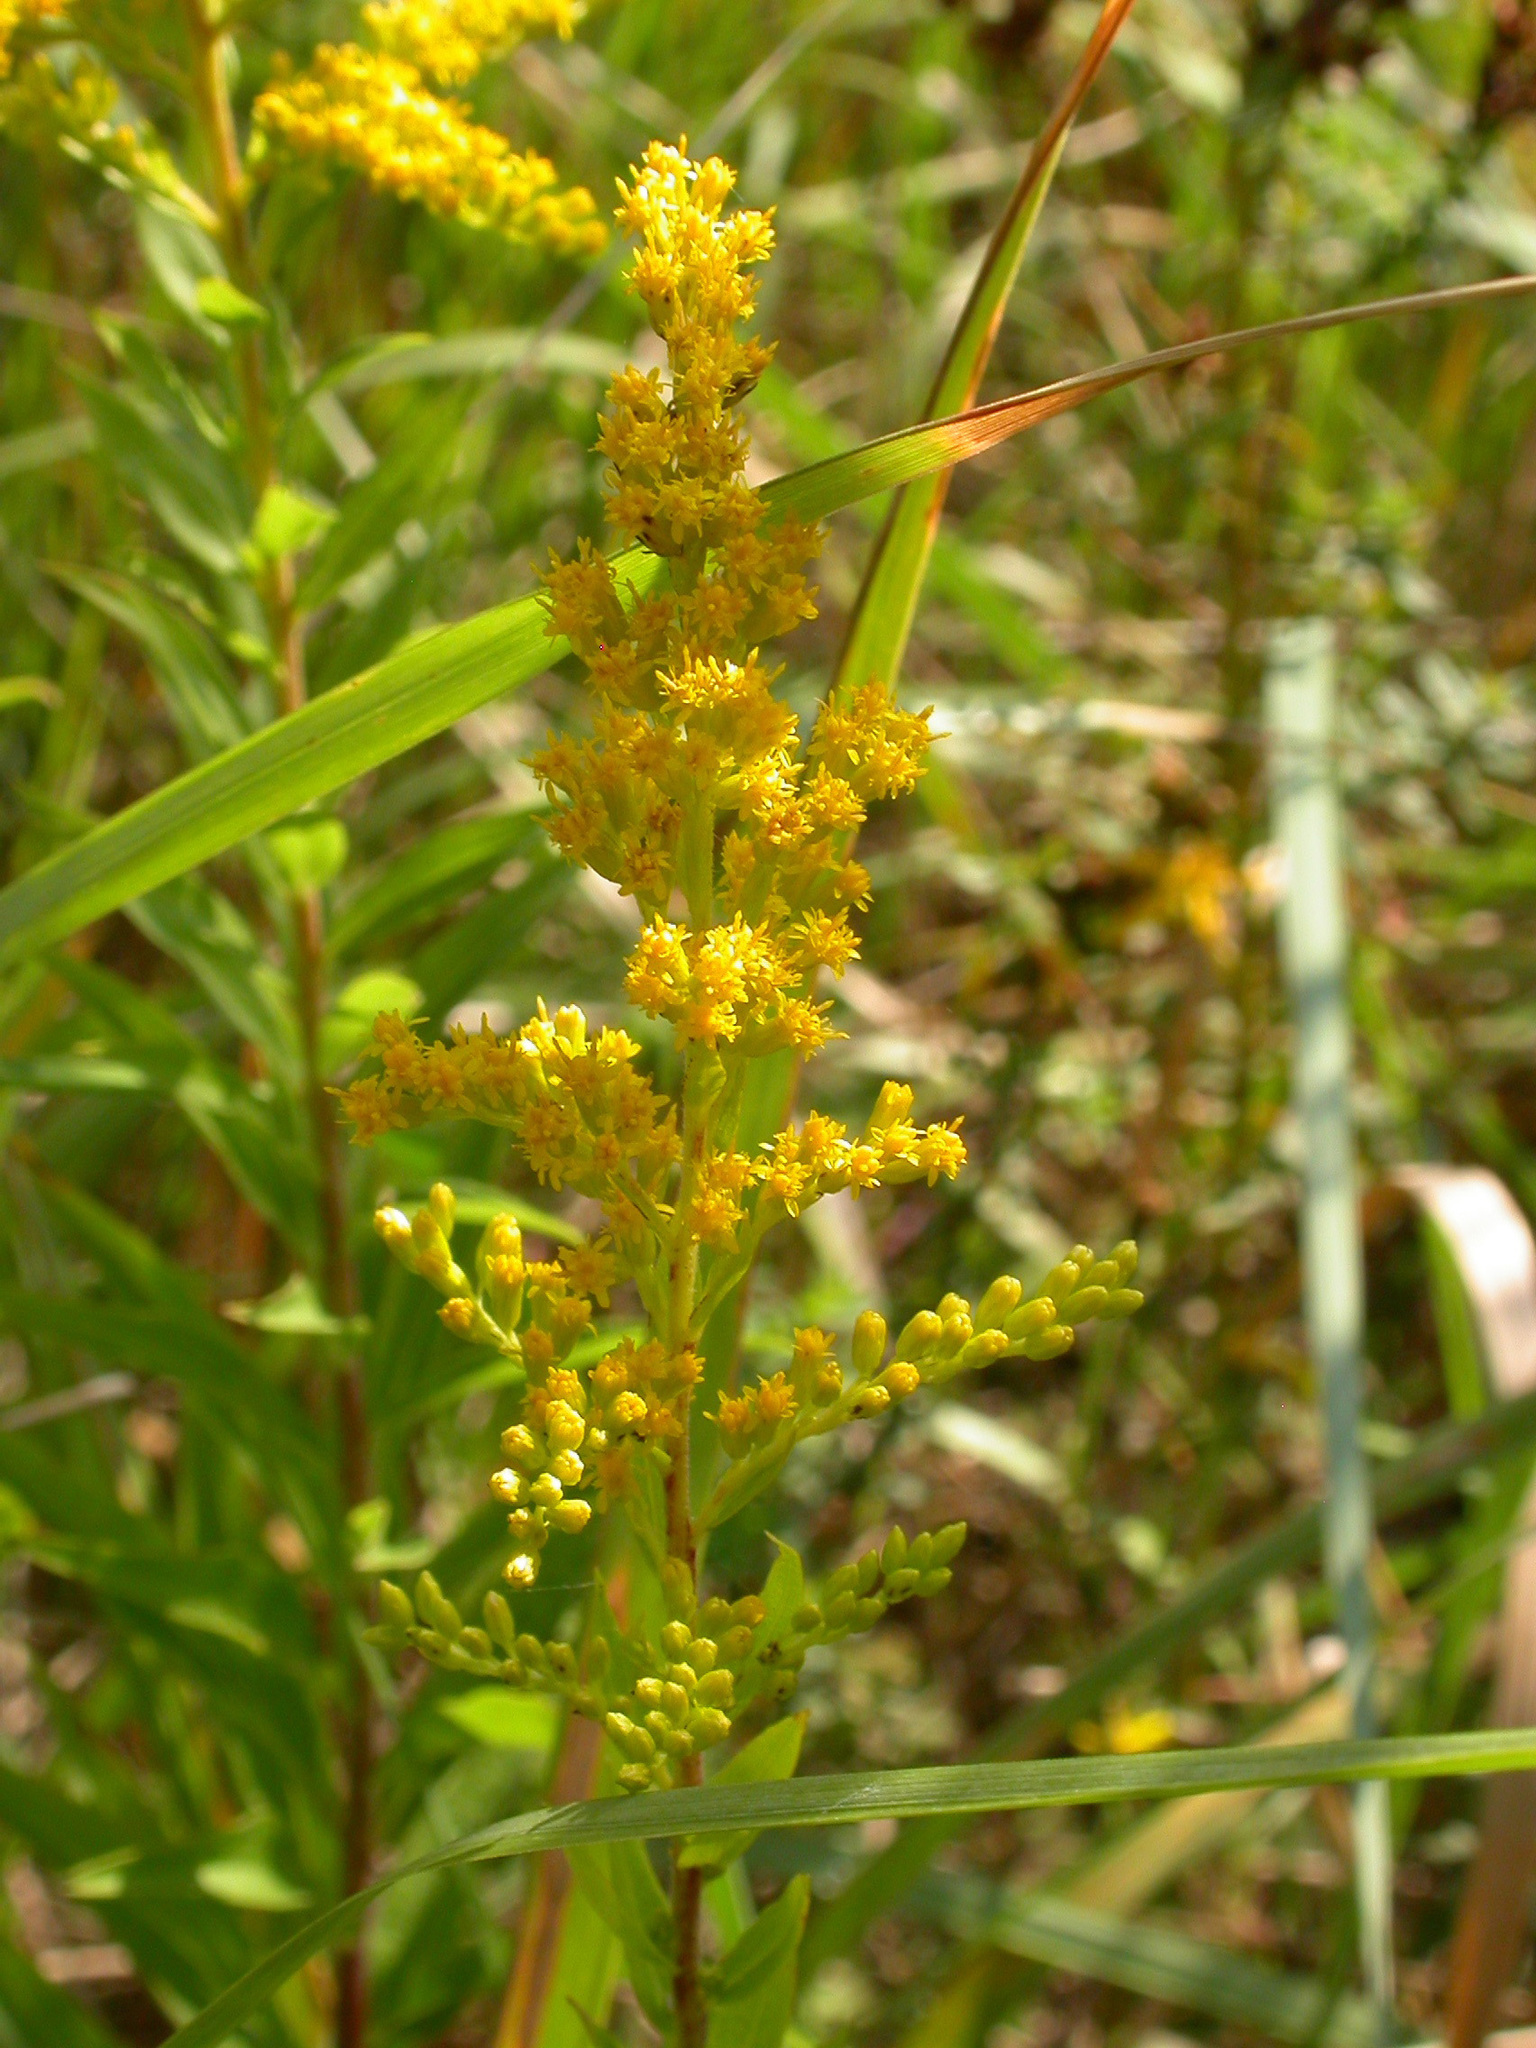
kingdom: Plantae
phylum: Tracheophyta
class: Magnoliopsida
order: Asterales
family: Asteraceae
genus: Solidago
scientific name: Solidago virgaurea
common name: Goldenrod
